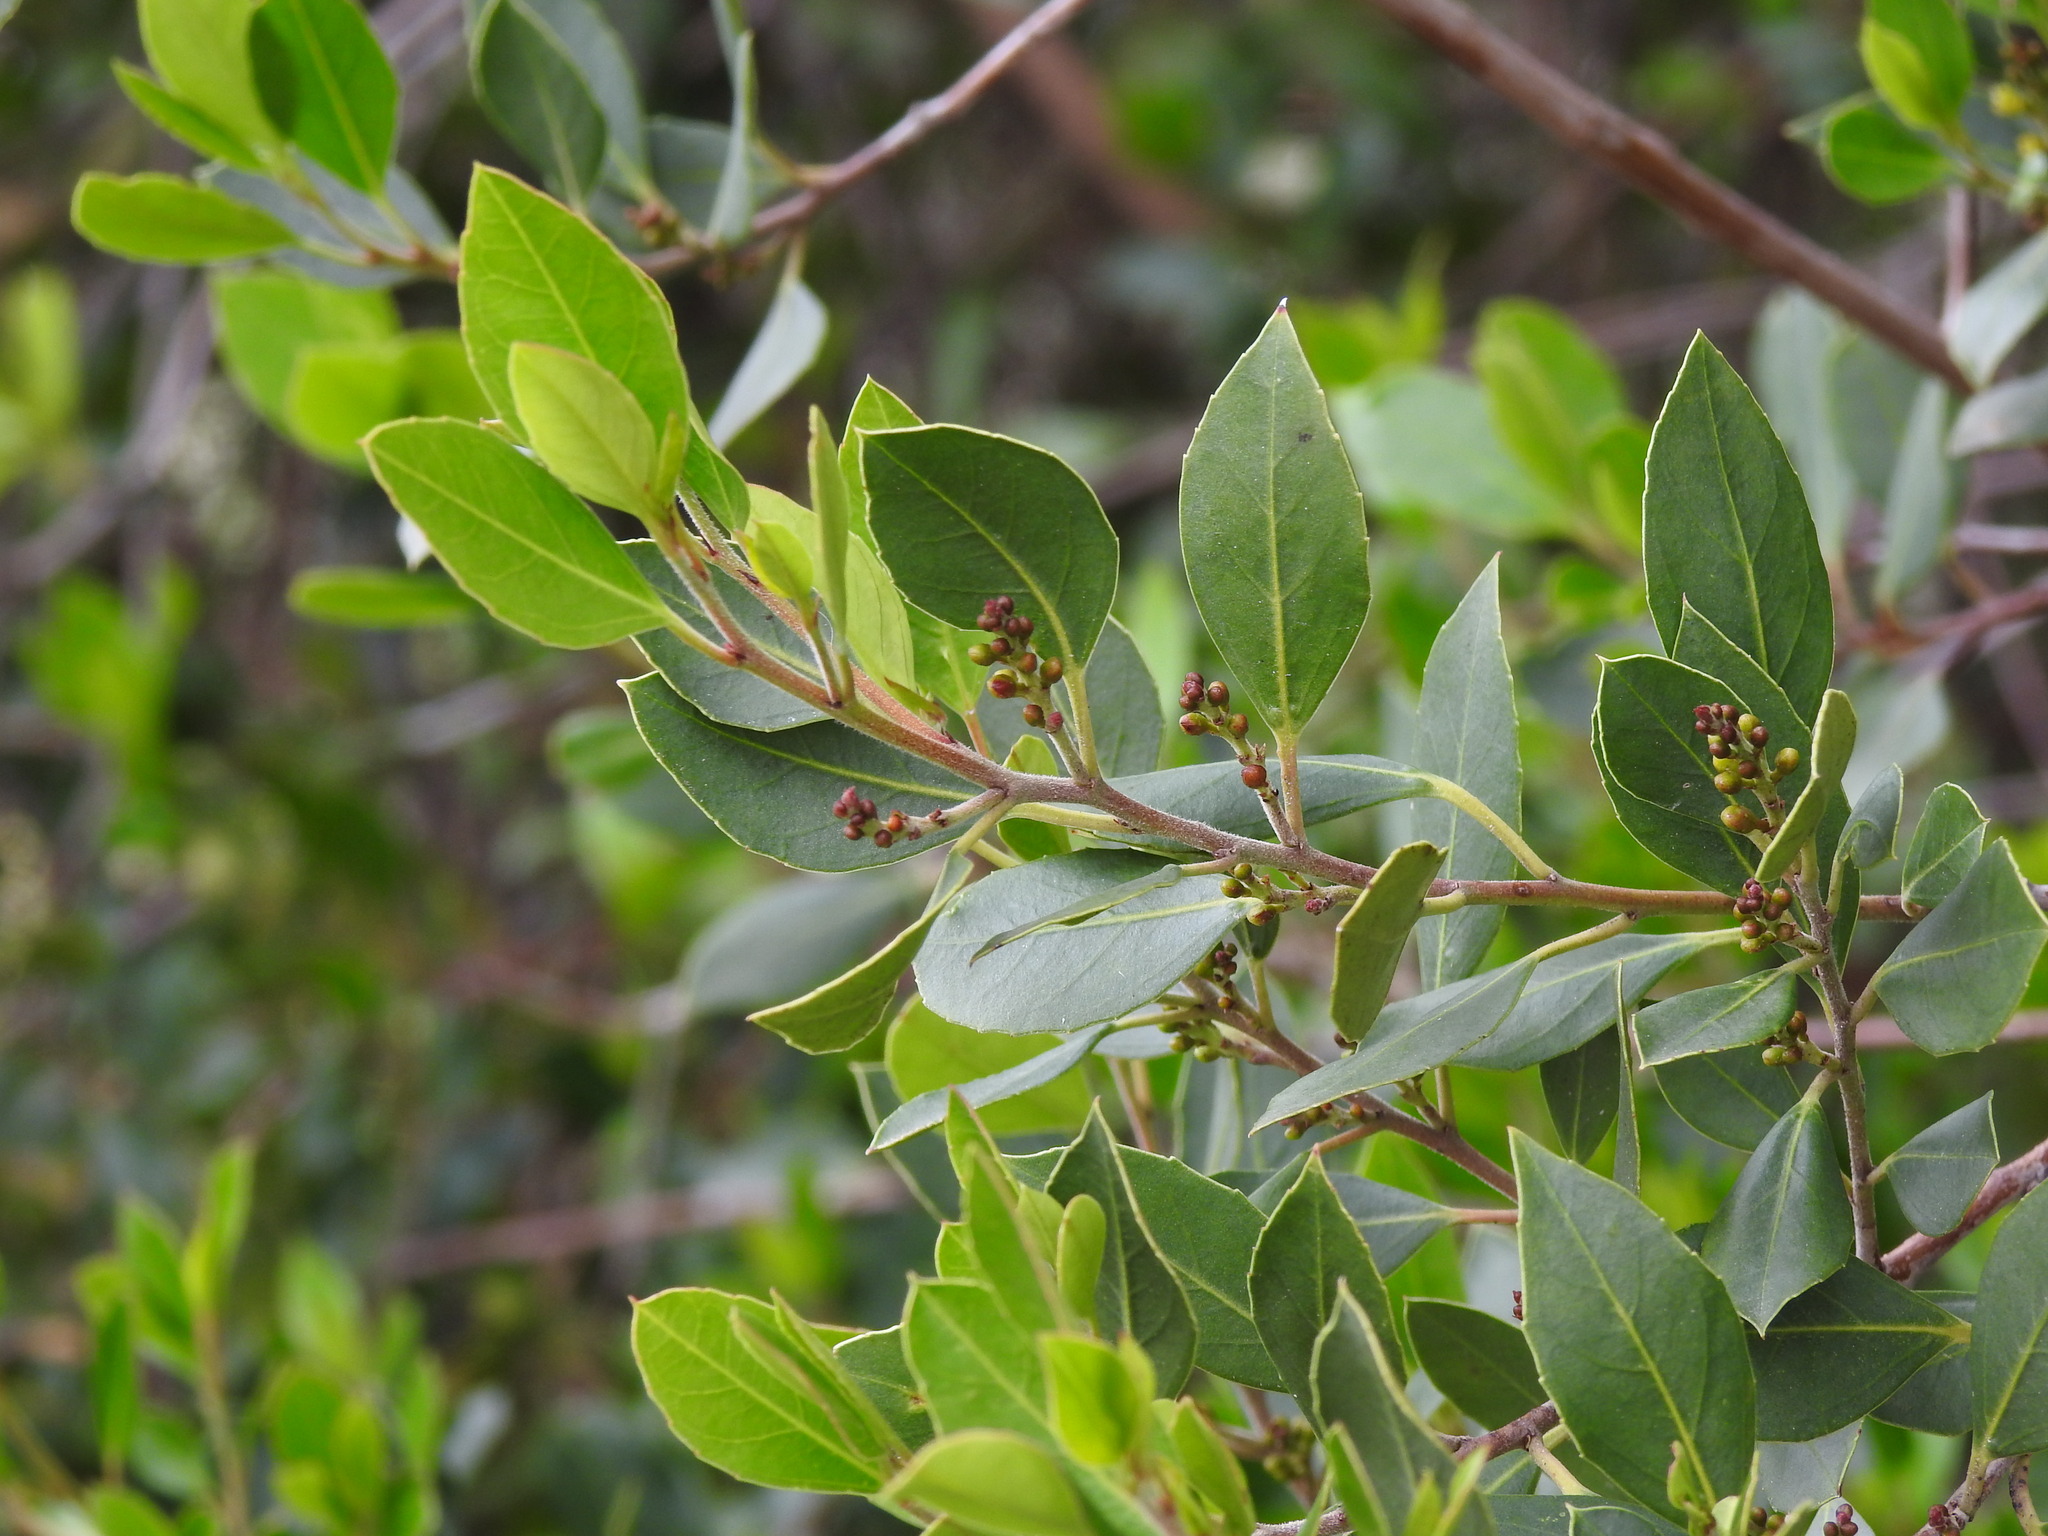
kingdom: Plantae
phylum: Tracheophyta
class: Magnoliopsida
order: Rosales
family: Rhamnaceae
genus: Rhamnus
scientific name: Rhamnus alaternus
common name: Mediterranean buckthorn
